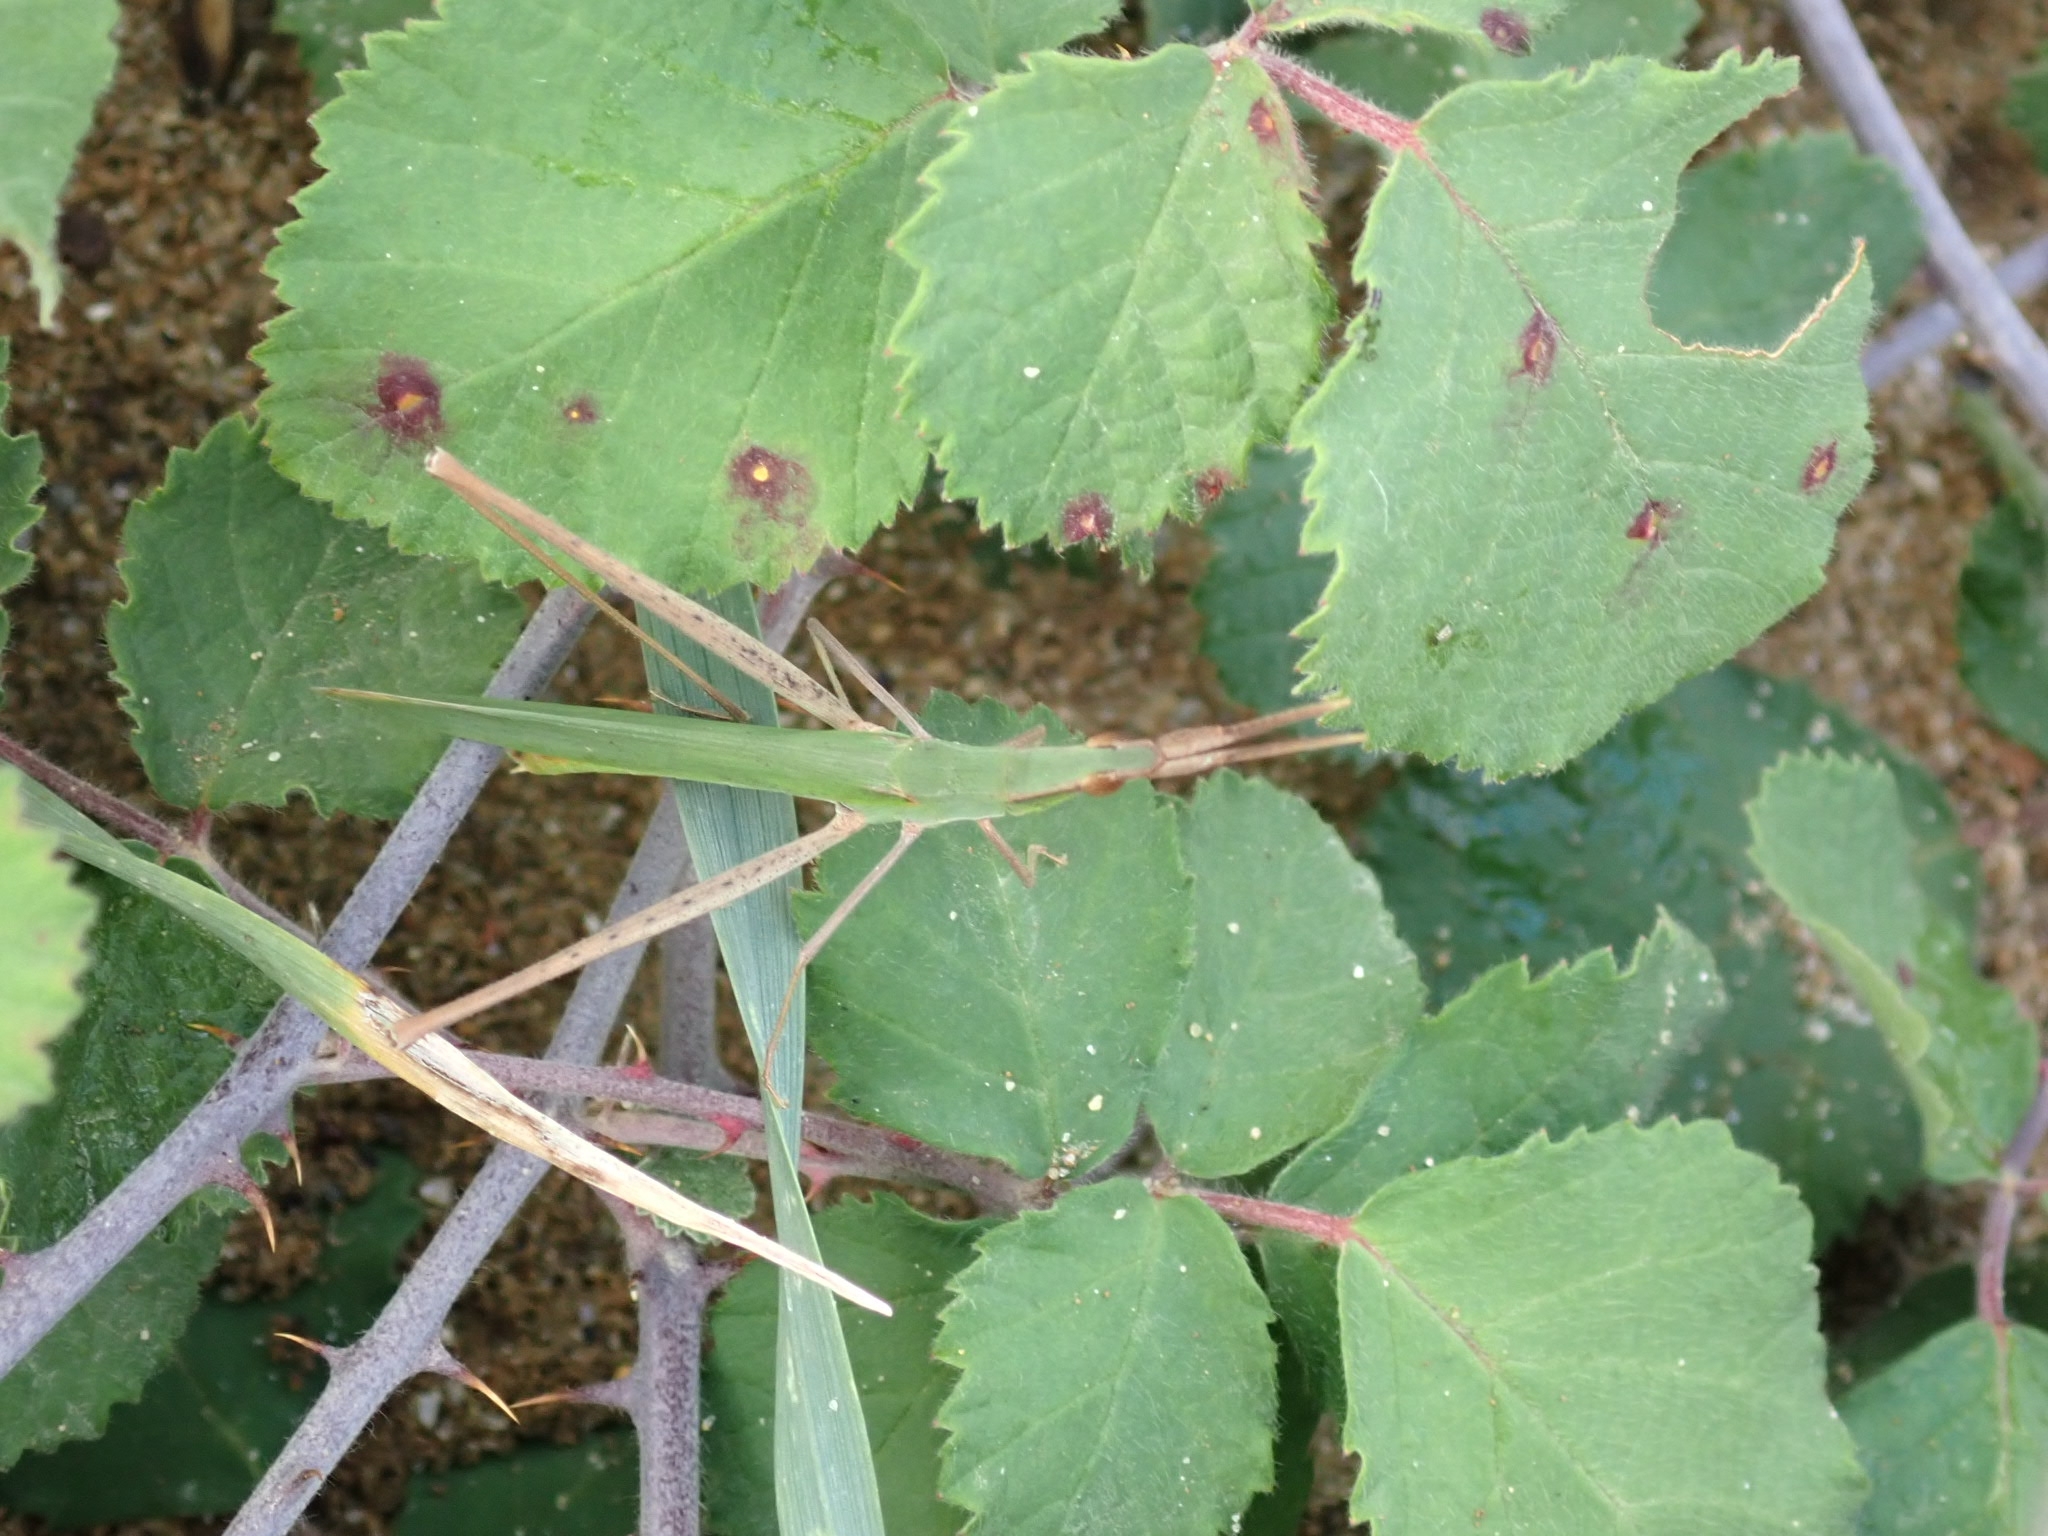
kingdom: Animalia
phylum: Arthropoda
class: Insecta
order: Orthoptera
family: Acrididae
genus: Acrida
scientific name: Acrida ungarica
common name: Common cone-headed grasshopper
